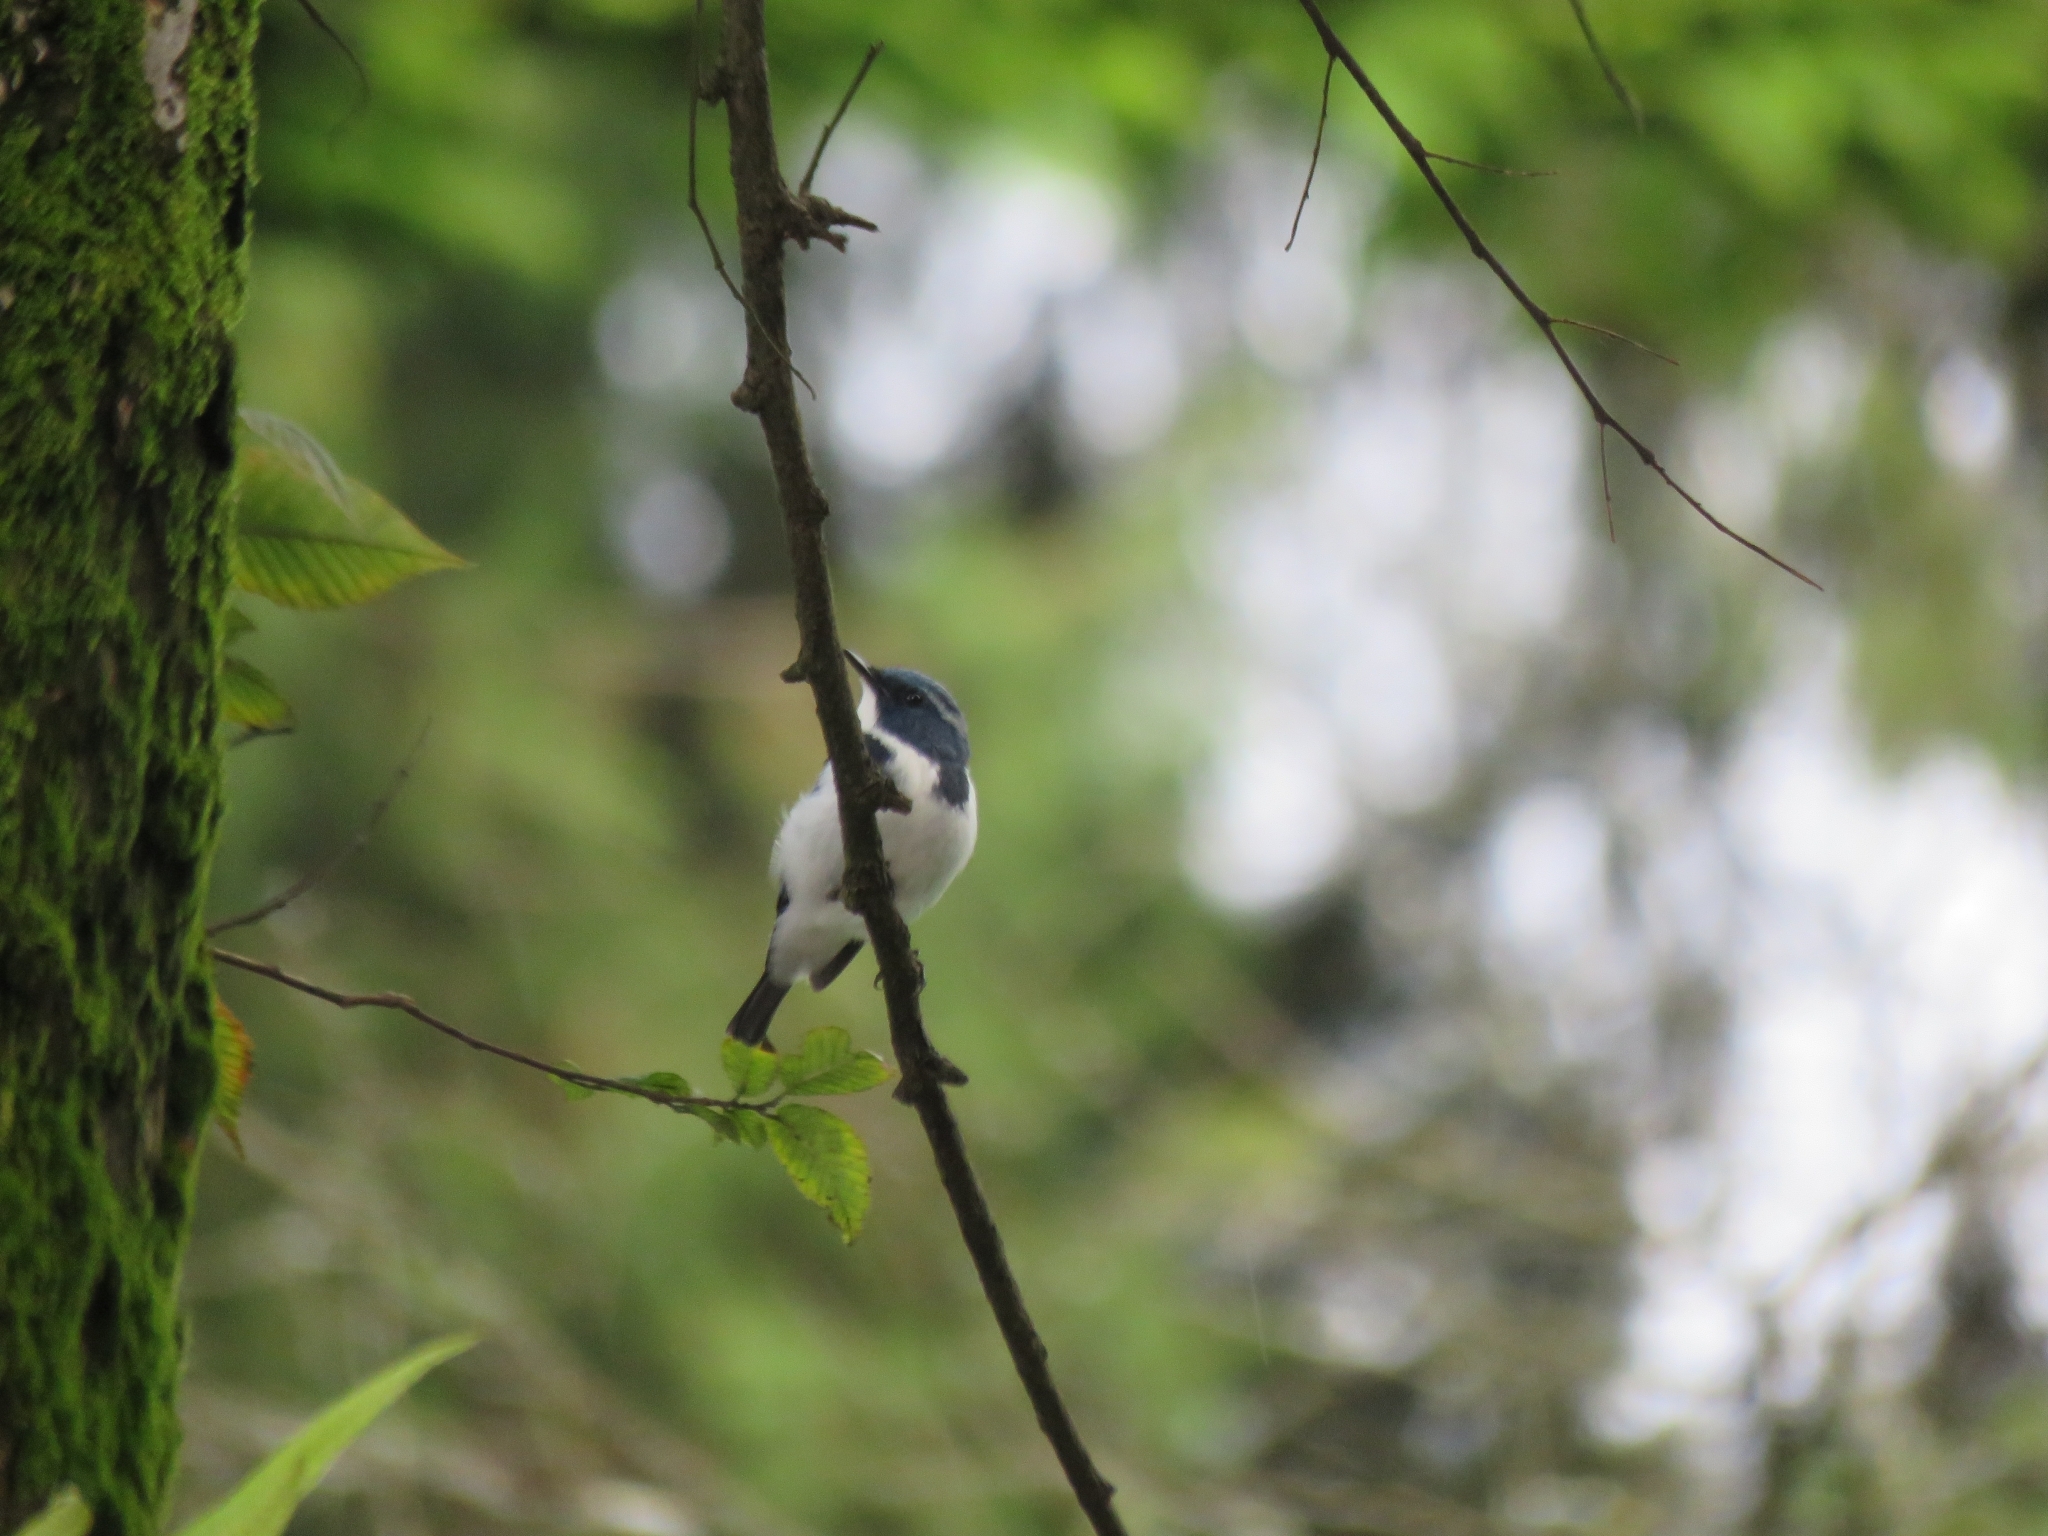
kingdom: Animalia
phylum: Chordata
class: Aves
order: Passeriformes
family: Muscicapidae
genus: Ficedula
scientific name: Ficedula superciliaris
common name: Ultramarine flycatcher
